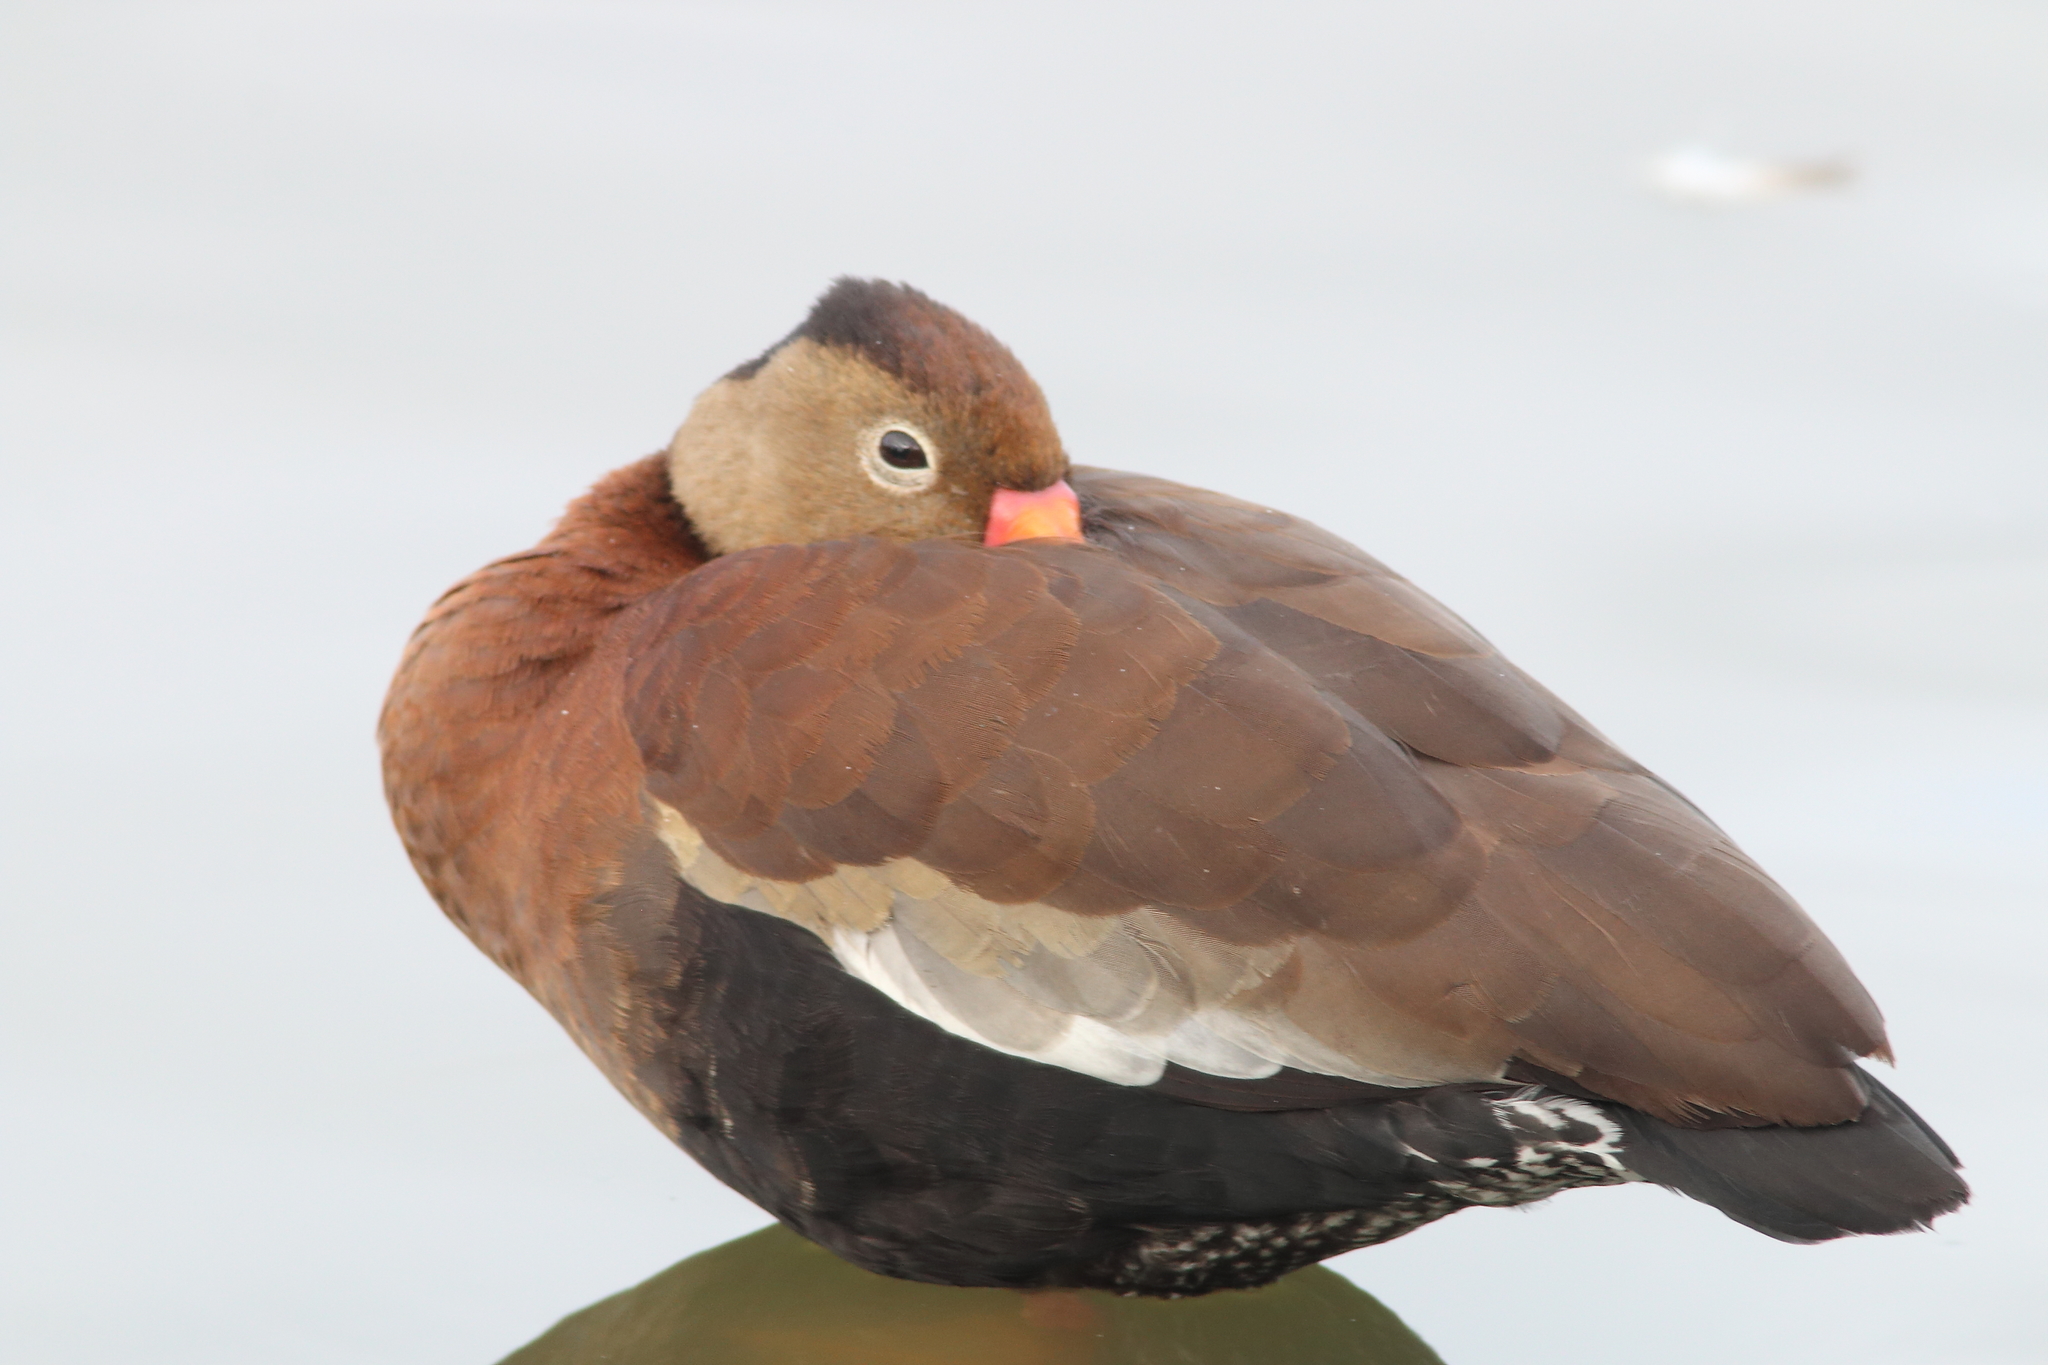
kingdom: Animalia
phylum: Chordata
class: Aves
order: Anseriformes
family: Anatidae
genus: Dendrocygna
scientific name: Dendrocygna autumnalis
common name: Black-bellied whistling duck
